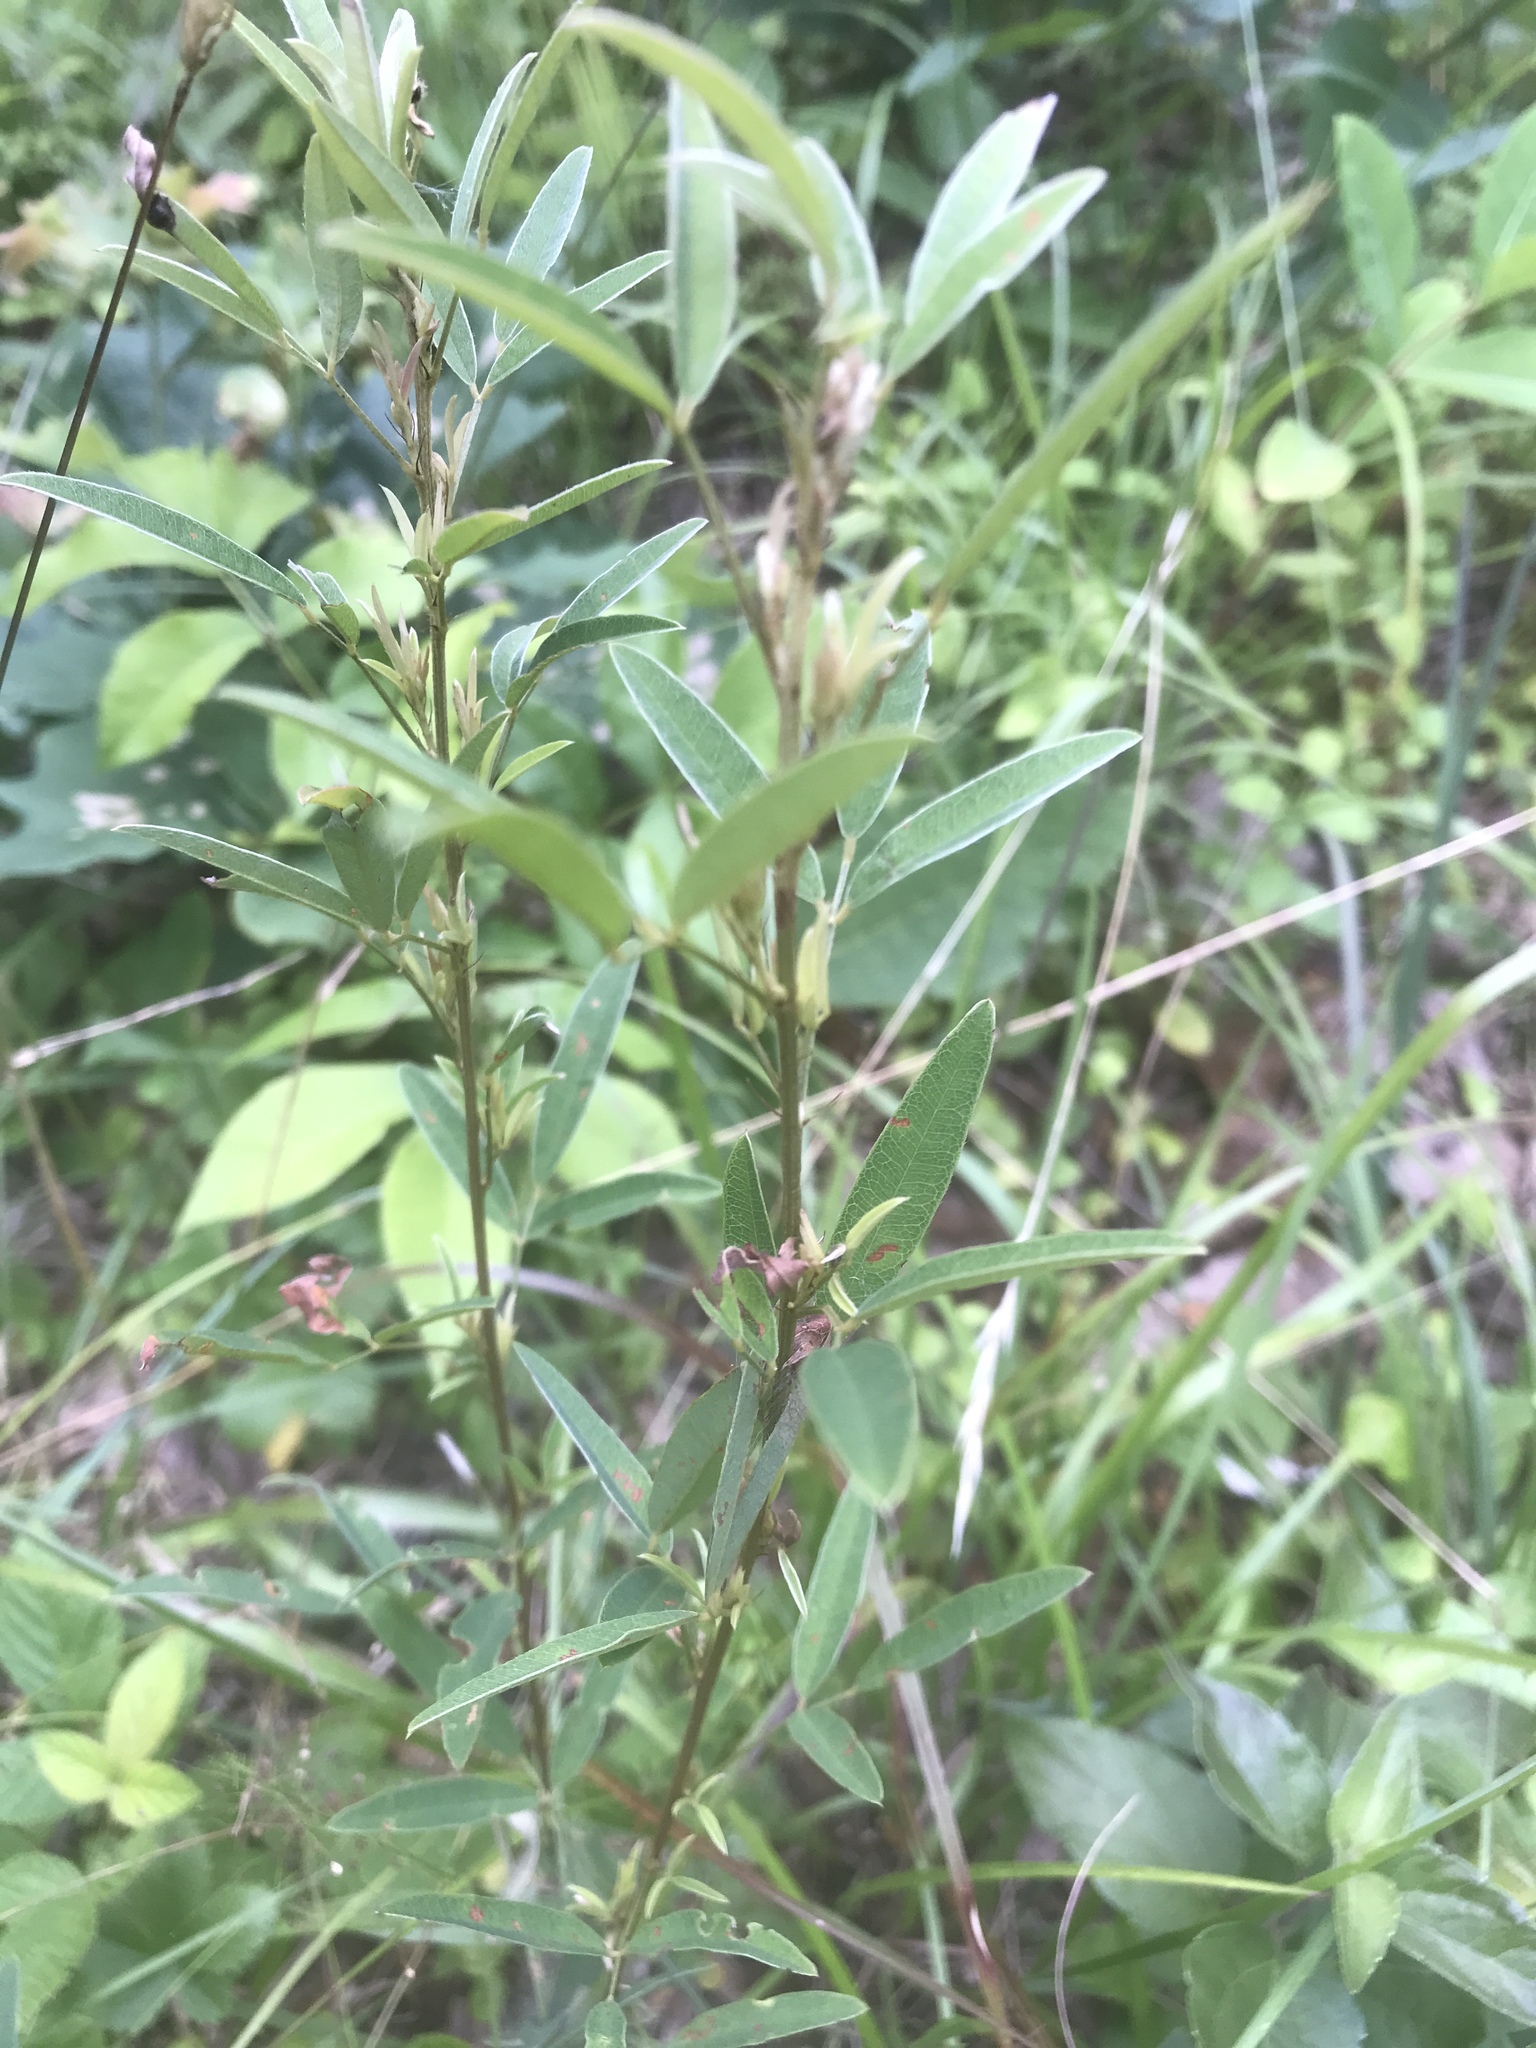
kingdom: Plantae
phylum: Tracheophyta
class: Magnoliopsida
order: Fabales
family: Fabaceae
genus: Lespedeza
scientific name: Lespedeza virginica
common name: Slender bush-clover
